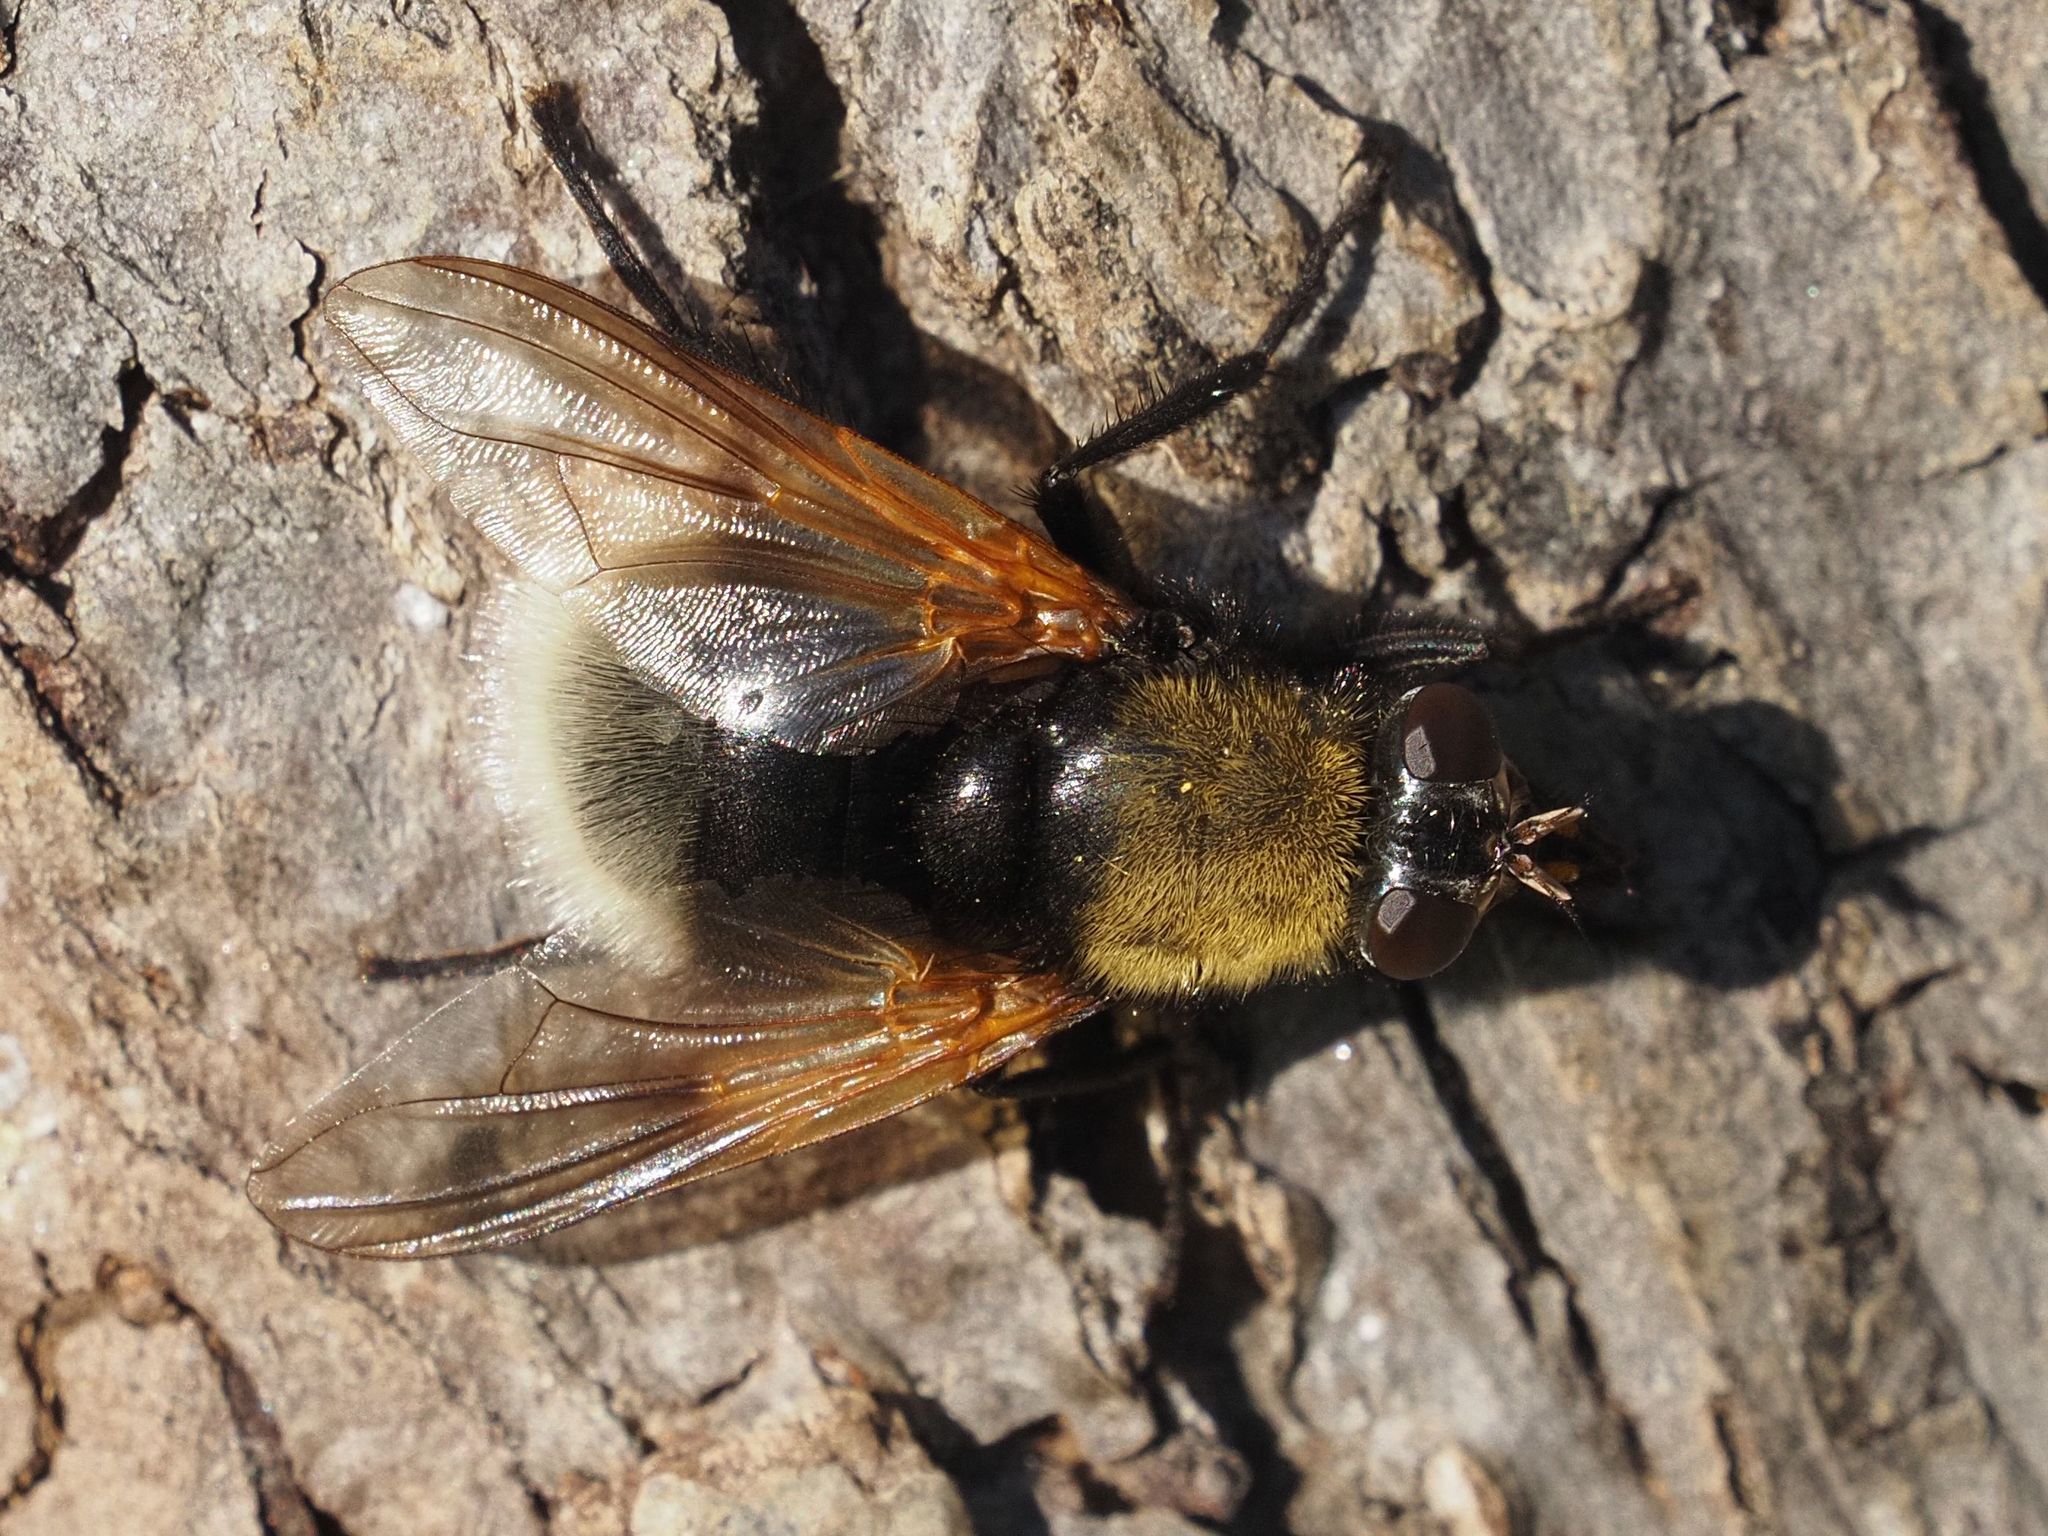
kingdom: Animalia
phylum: Arthropoda
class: Insecta
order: Diptera
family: Muscidae
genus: Mesembrina
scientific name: Mesembrina mystacea
